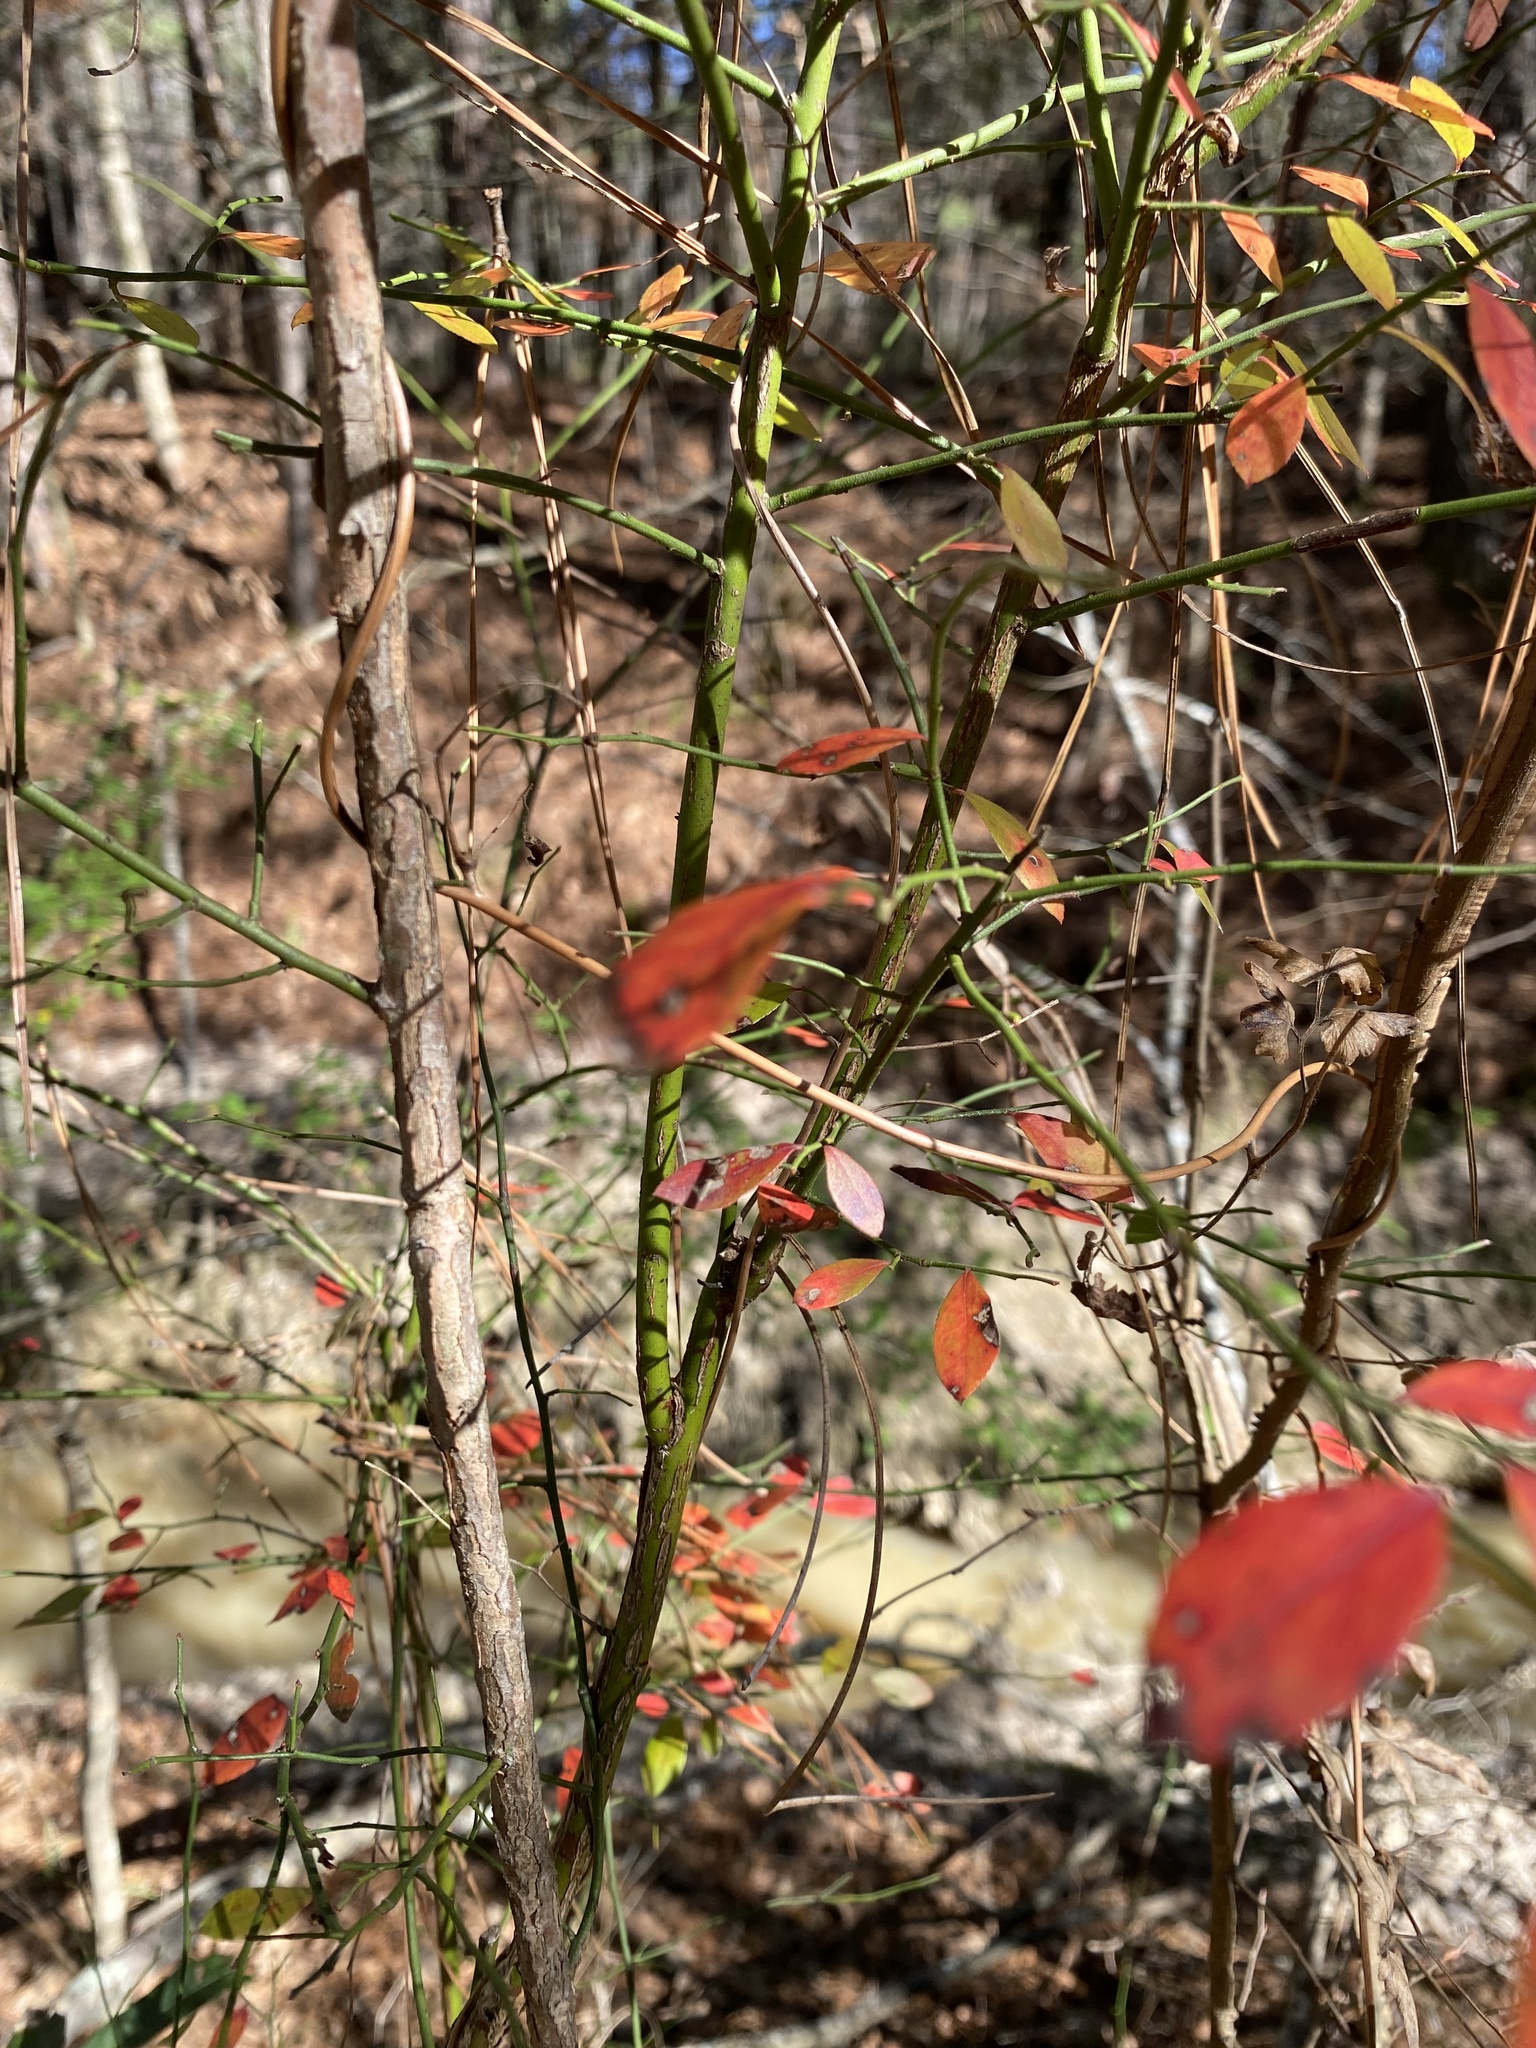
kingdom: Plantae
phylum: Tracheophyta
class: Magnoliopsida
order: Ericales
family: Ericaceae
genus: Vaccinium
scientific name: Vaccinium corymbosum
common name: Blueberry
